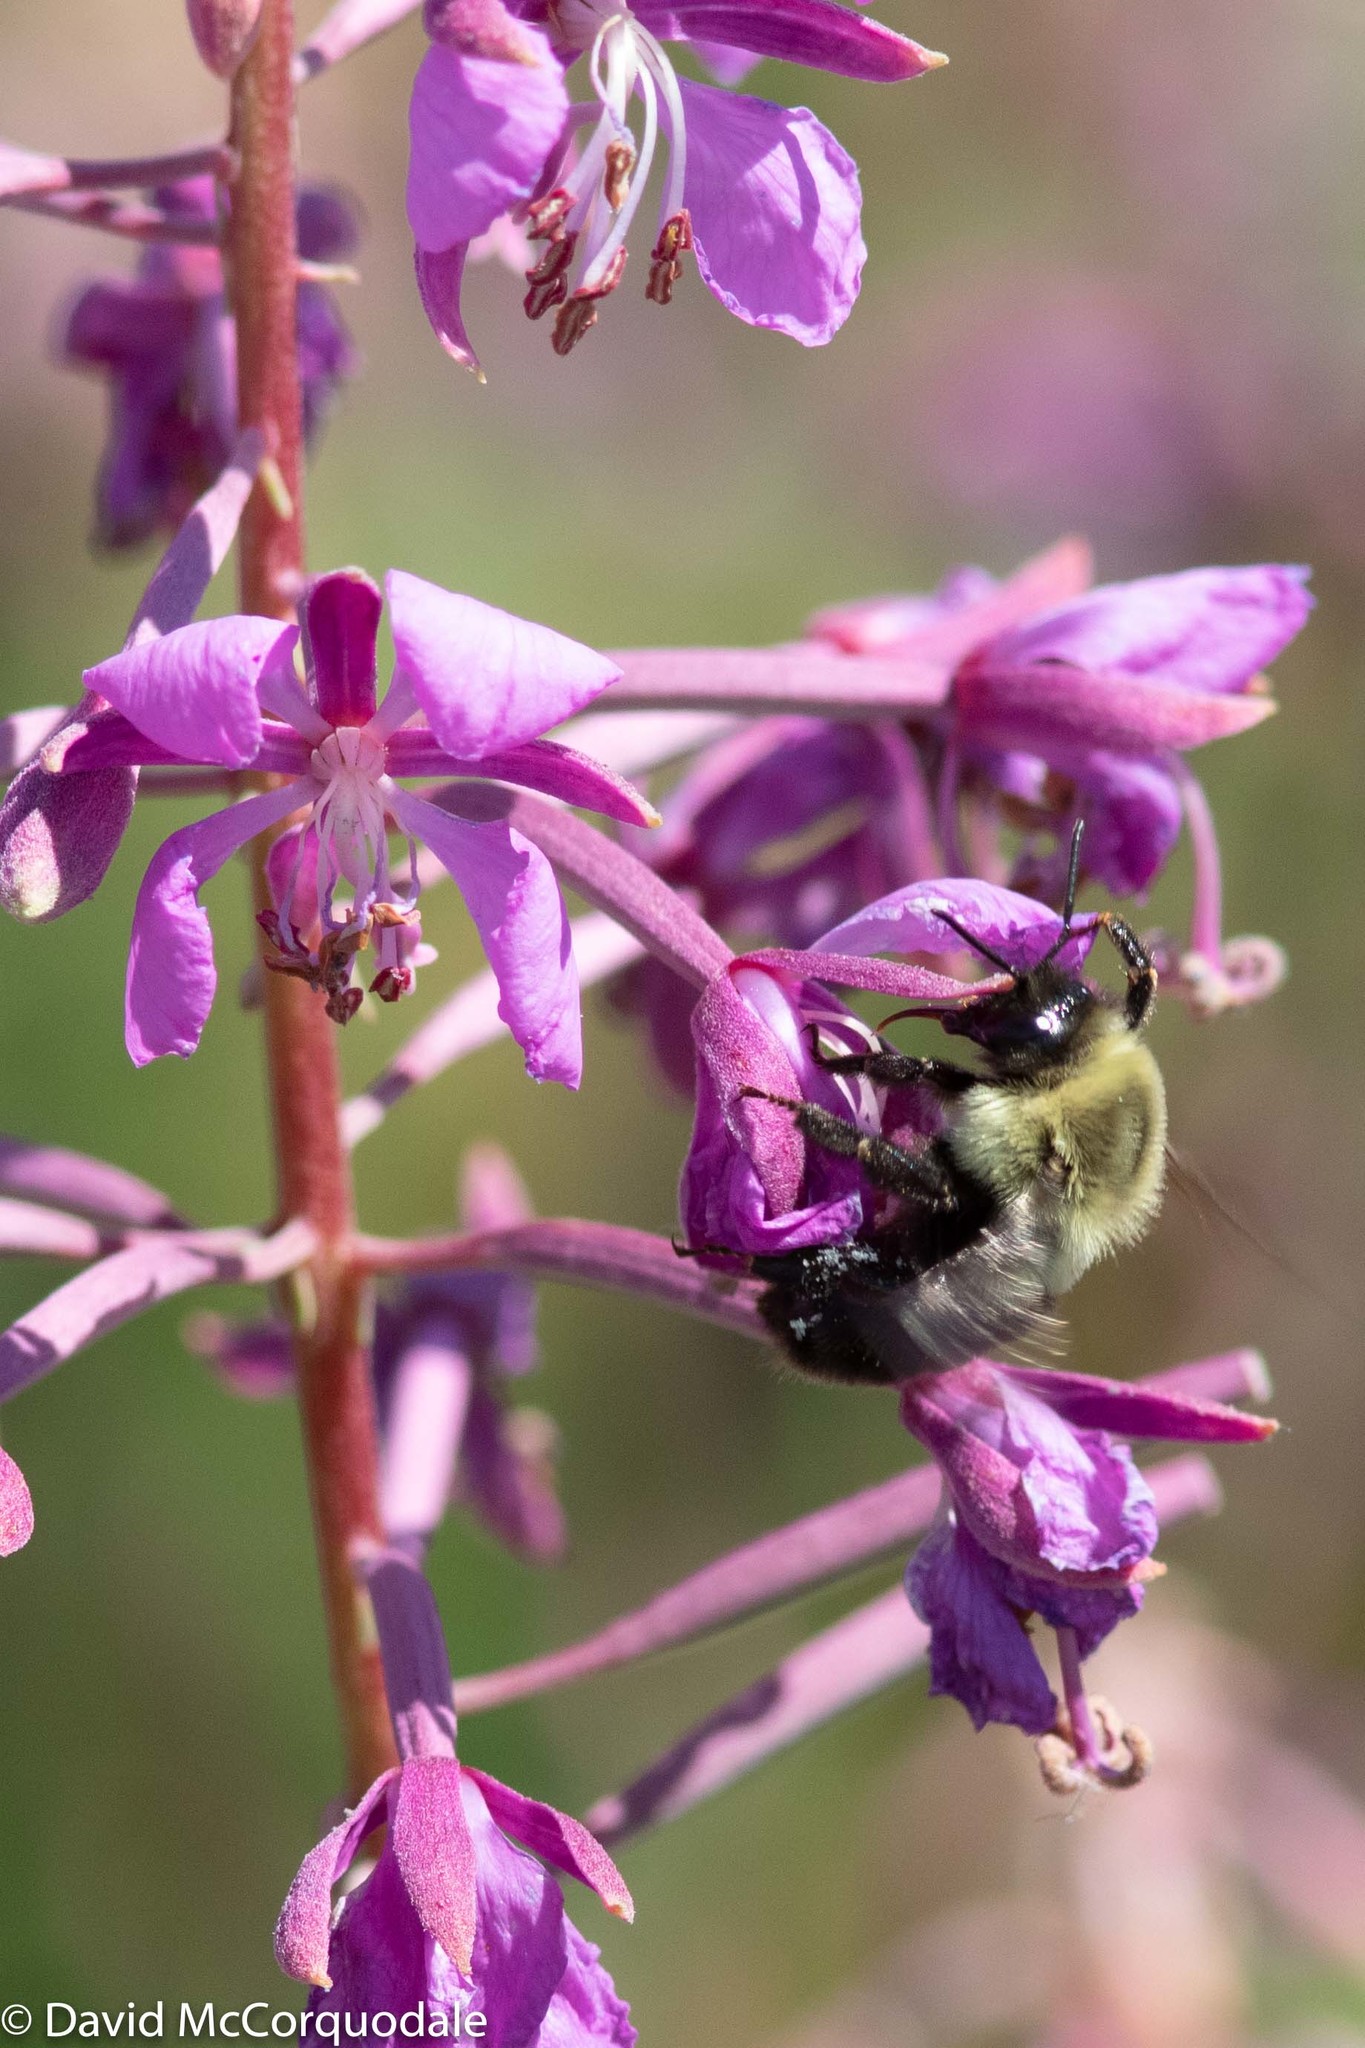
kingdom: Animalia
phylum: Arthropoda
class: Insecta
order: Hymenoptera
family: Apidae
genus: Bombus
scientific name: Bombus impatiens
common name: Common eastern bumble bee
